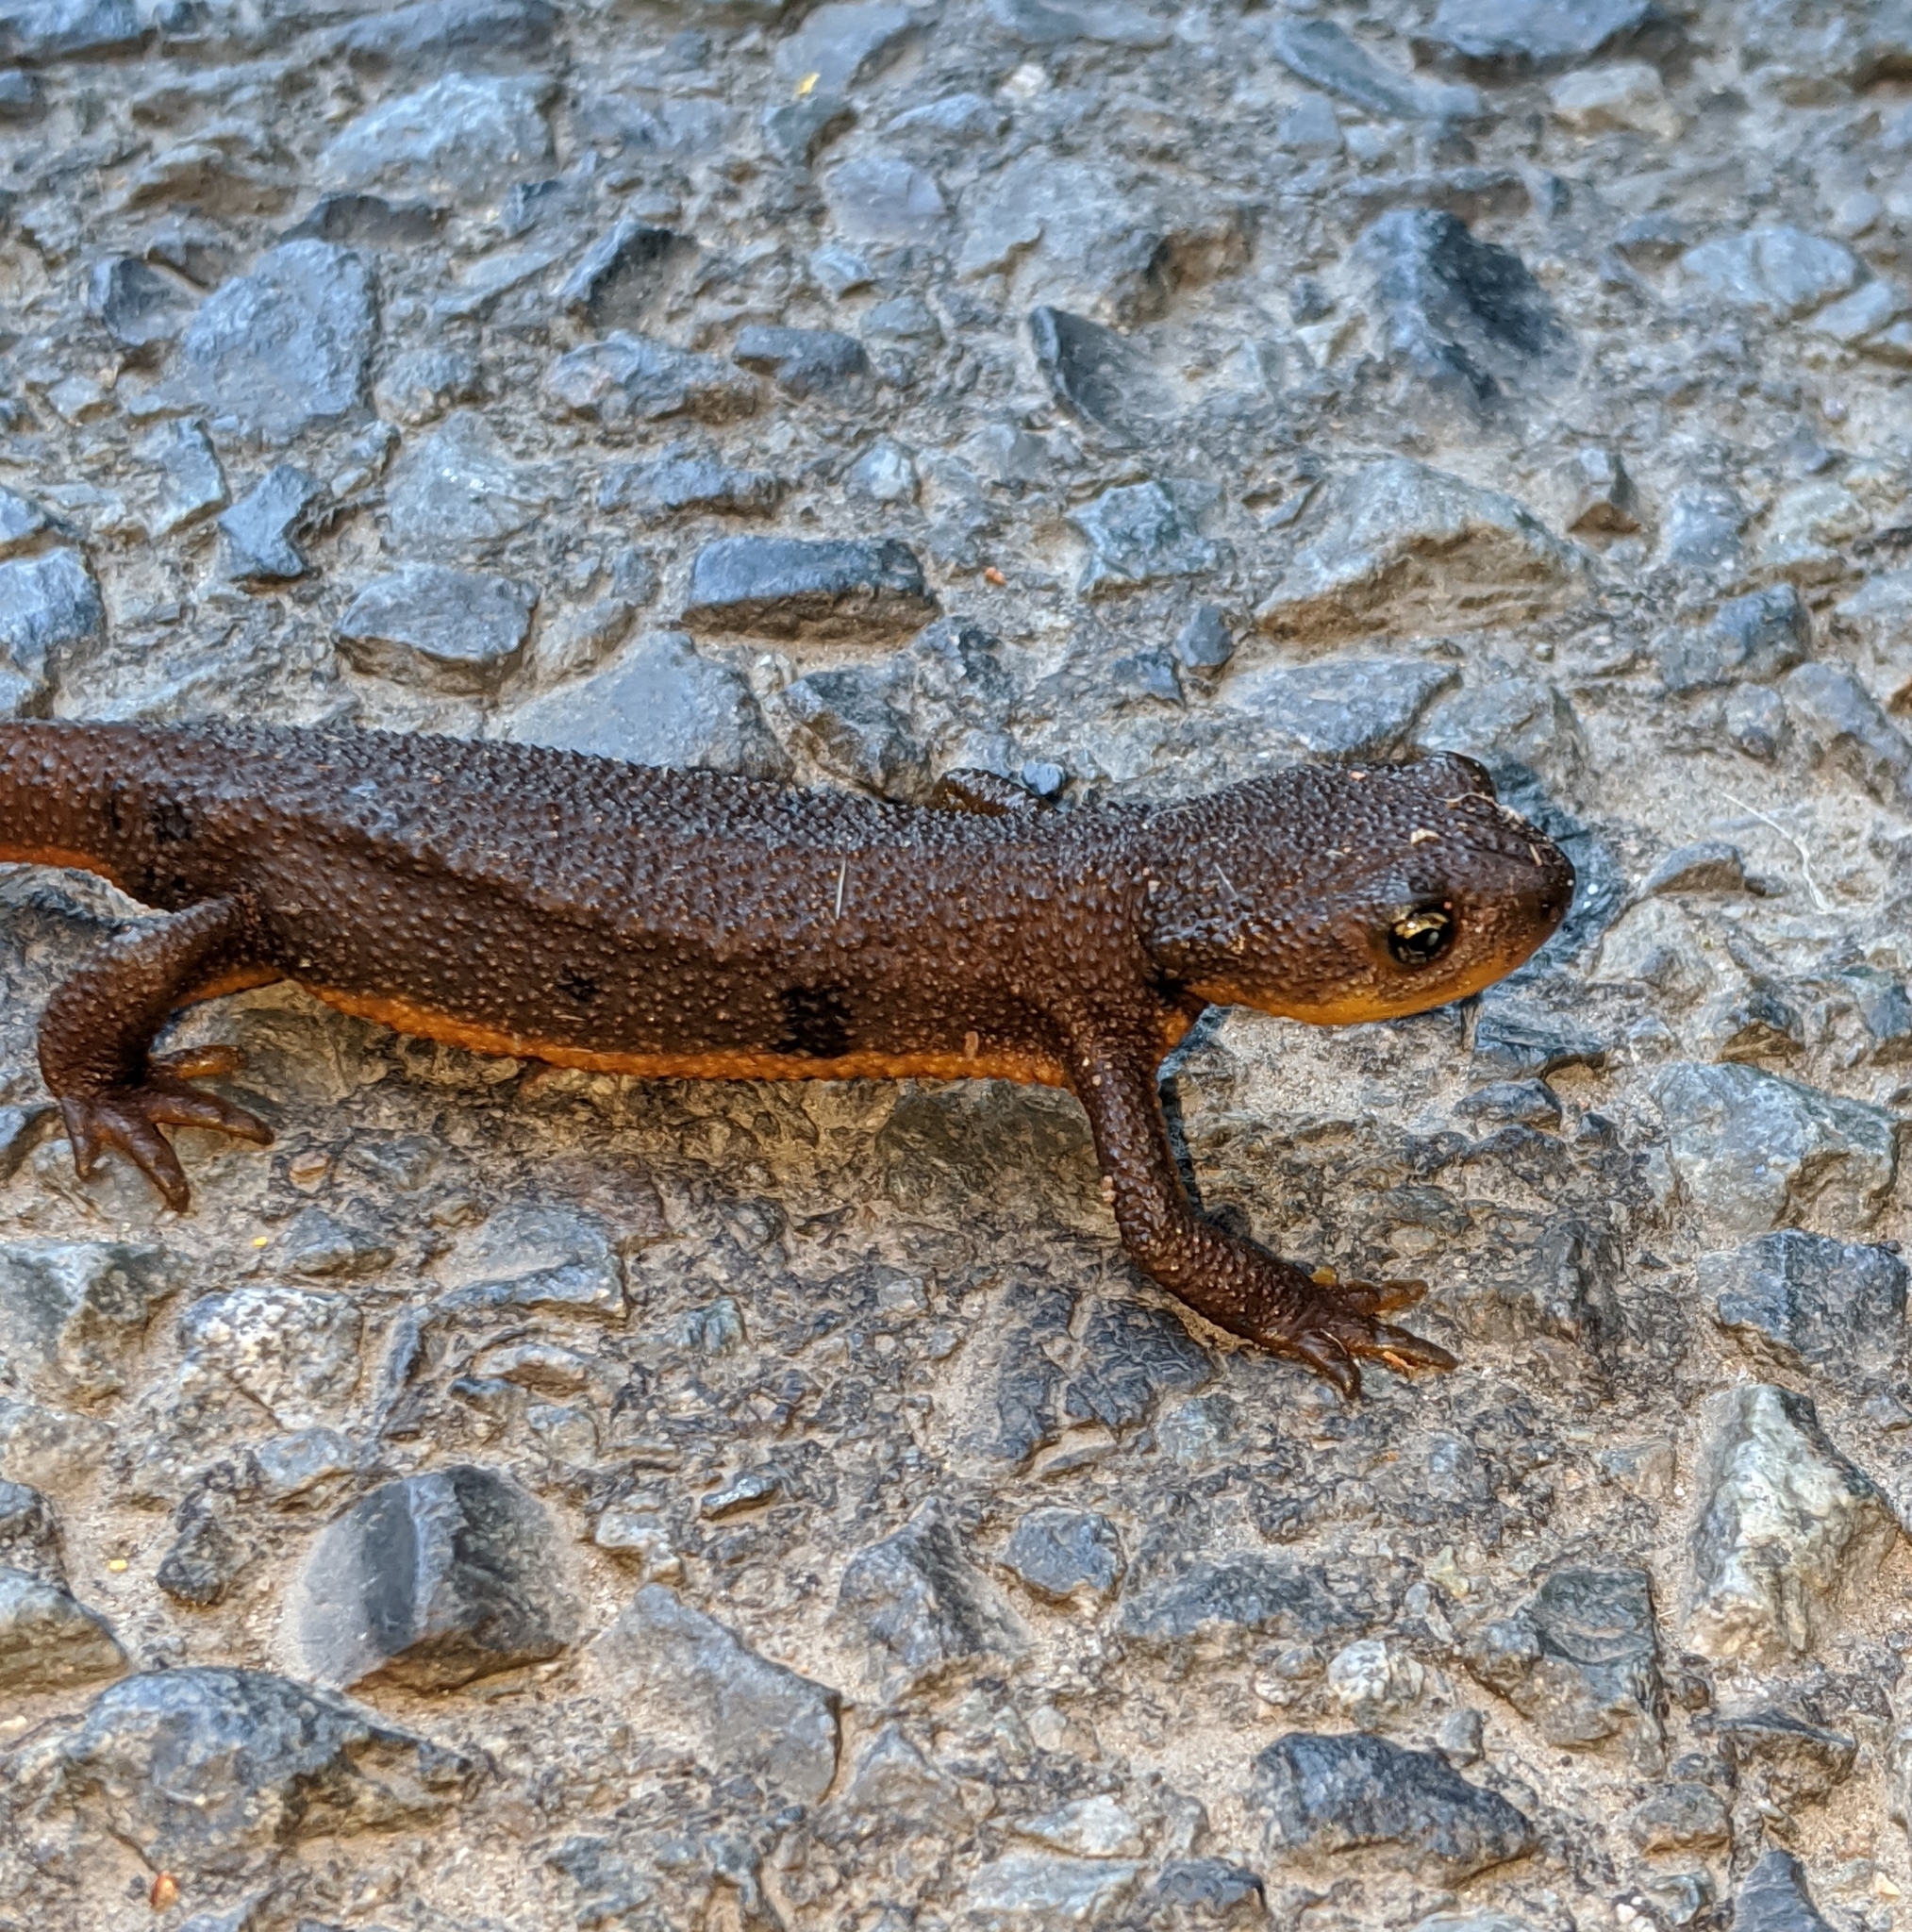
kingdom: Animalia
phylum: Chordata
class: Amphibia
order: Caudata
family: Salamandridae
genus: Taricha
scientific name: Taricha granulosa
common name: Roughskin newt
